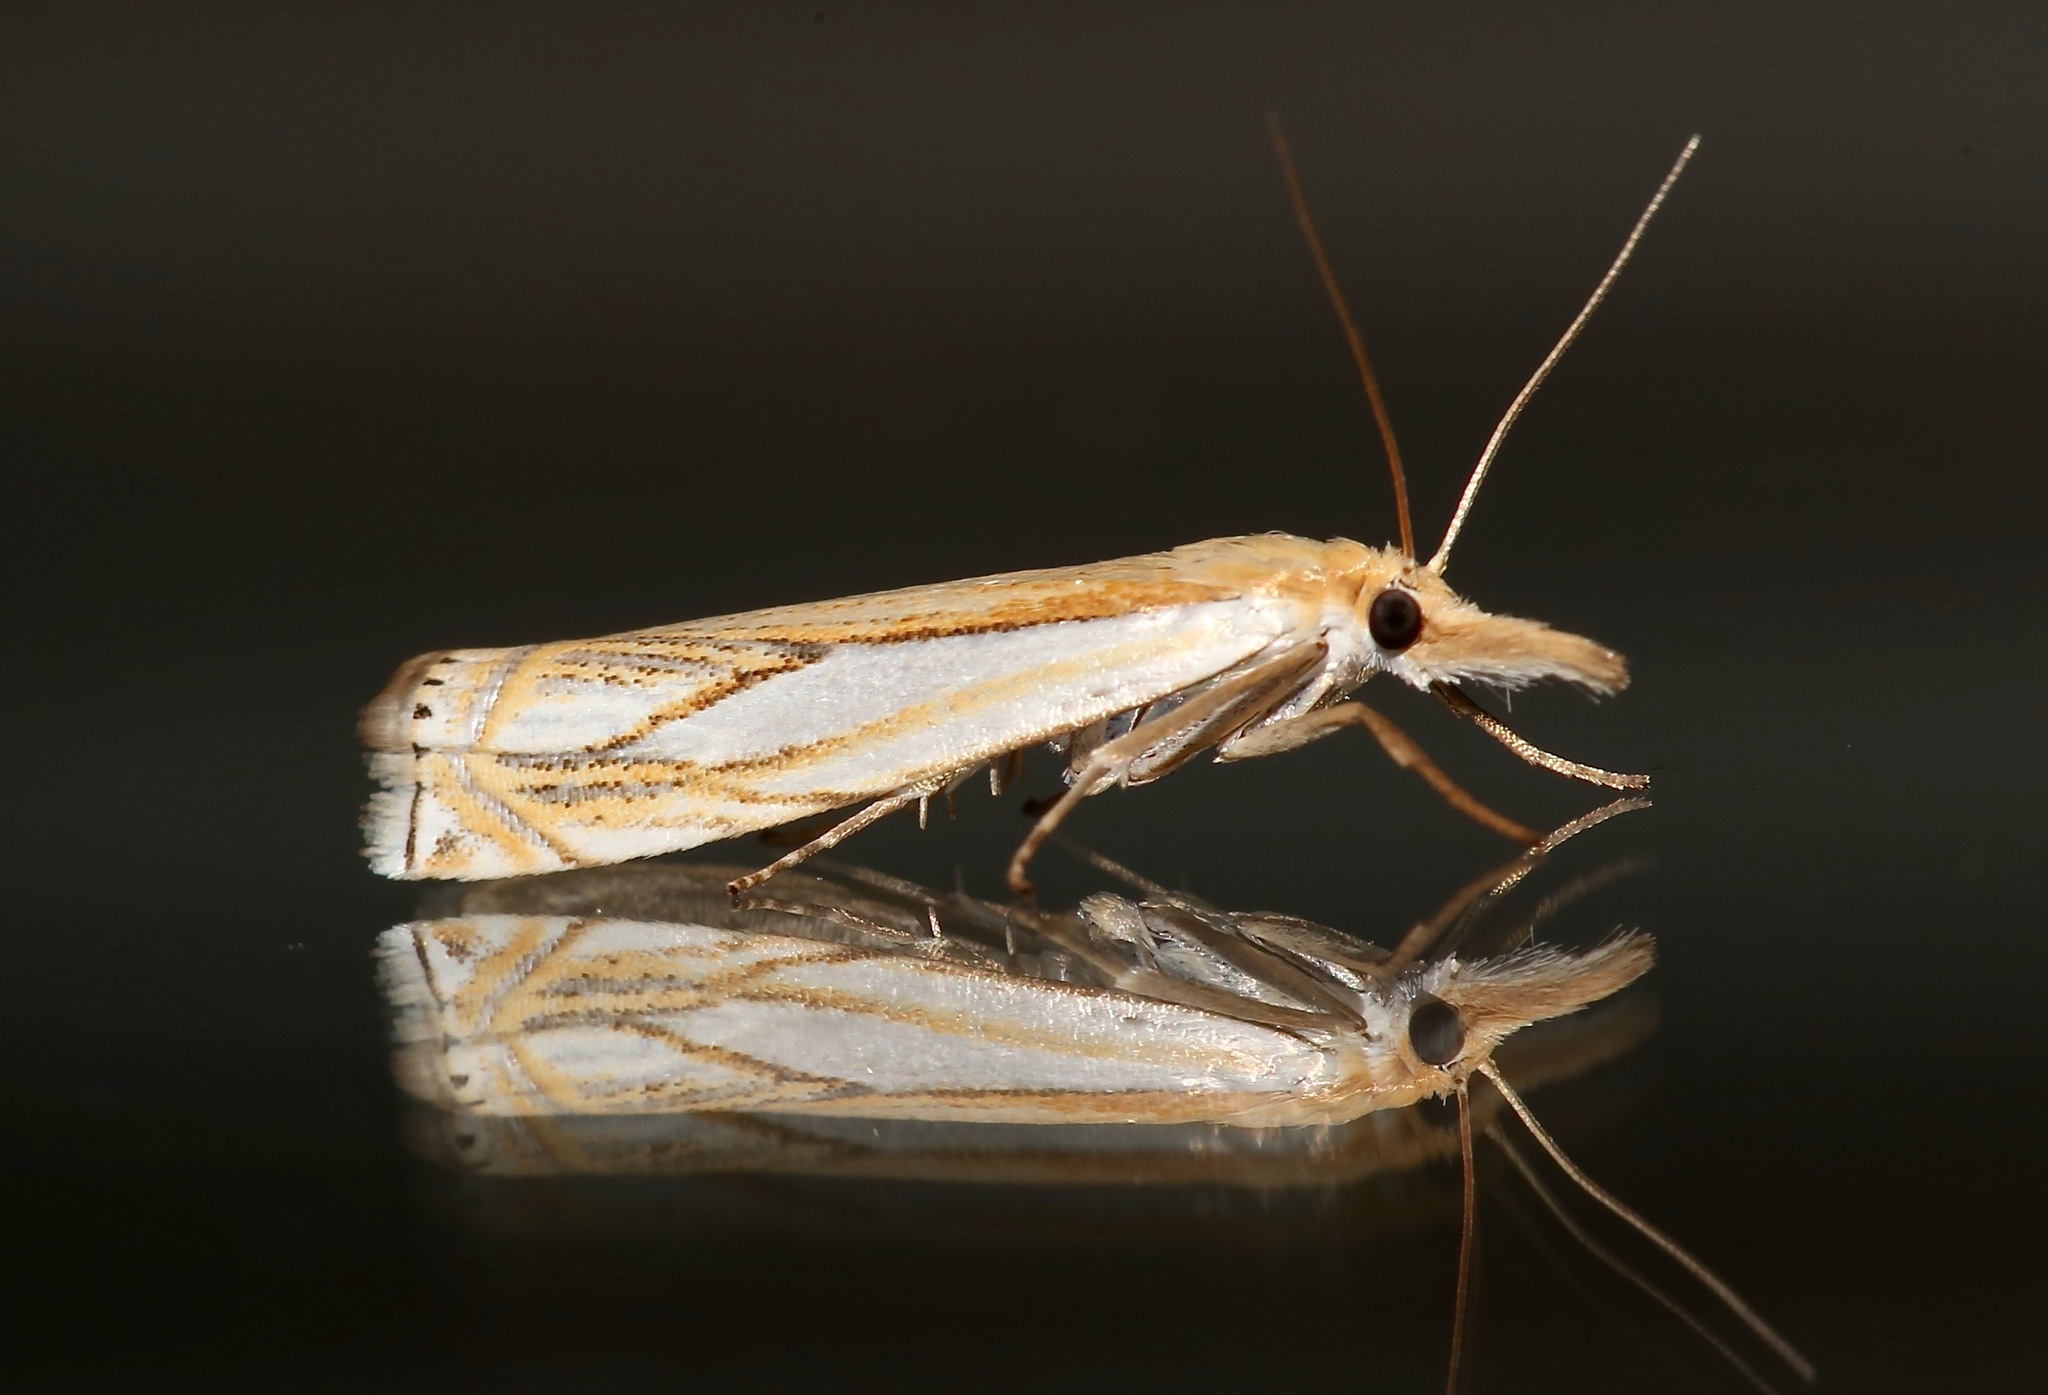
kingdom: Animalia
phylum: Arthropoda
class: Insecta
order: Lepidoptera
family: Crambidae
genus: Crambus
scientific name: Crambus saltuellus
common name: Pasture grass-veneer
